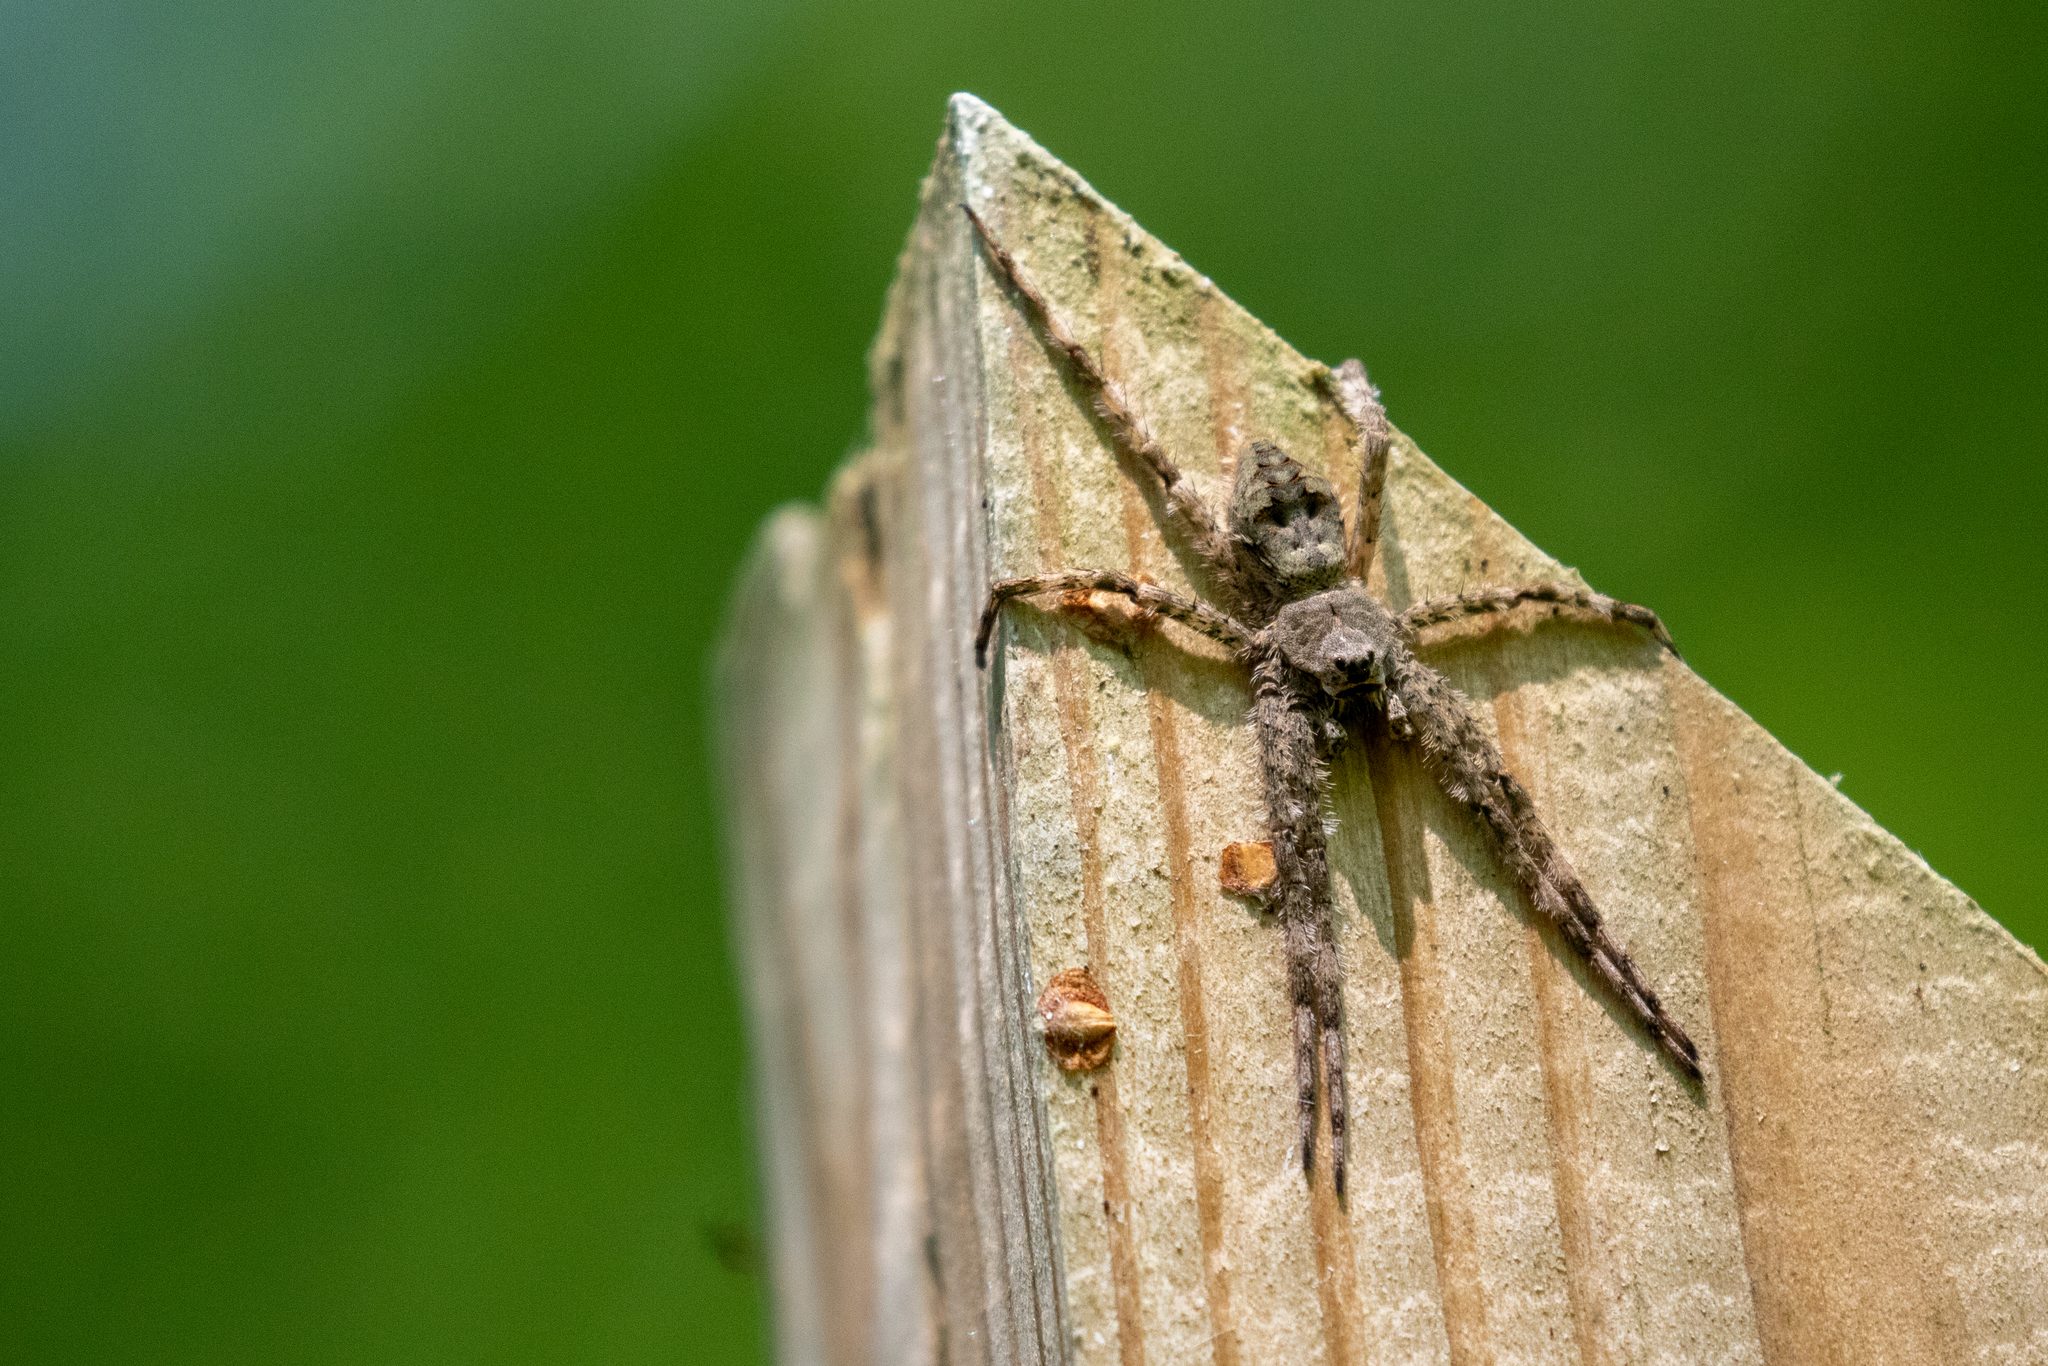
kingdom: Animalia
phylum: Arthropoda
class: Arachnida
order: Araneae
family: Pisauridae
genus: Dolomedes
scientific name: Dolomedes albineus
